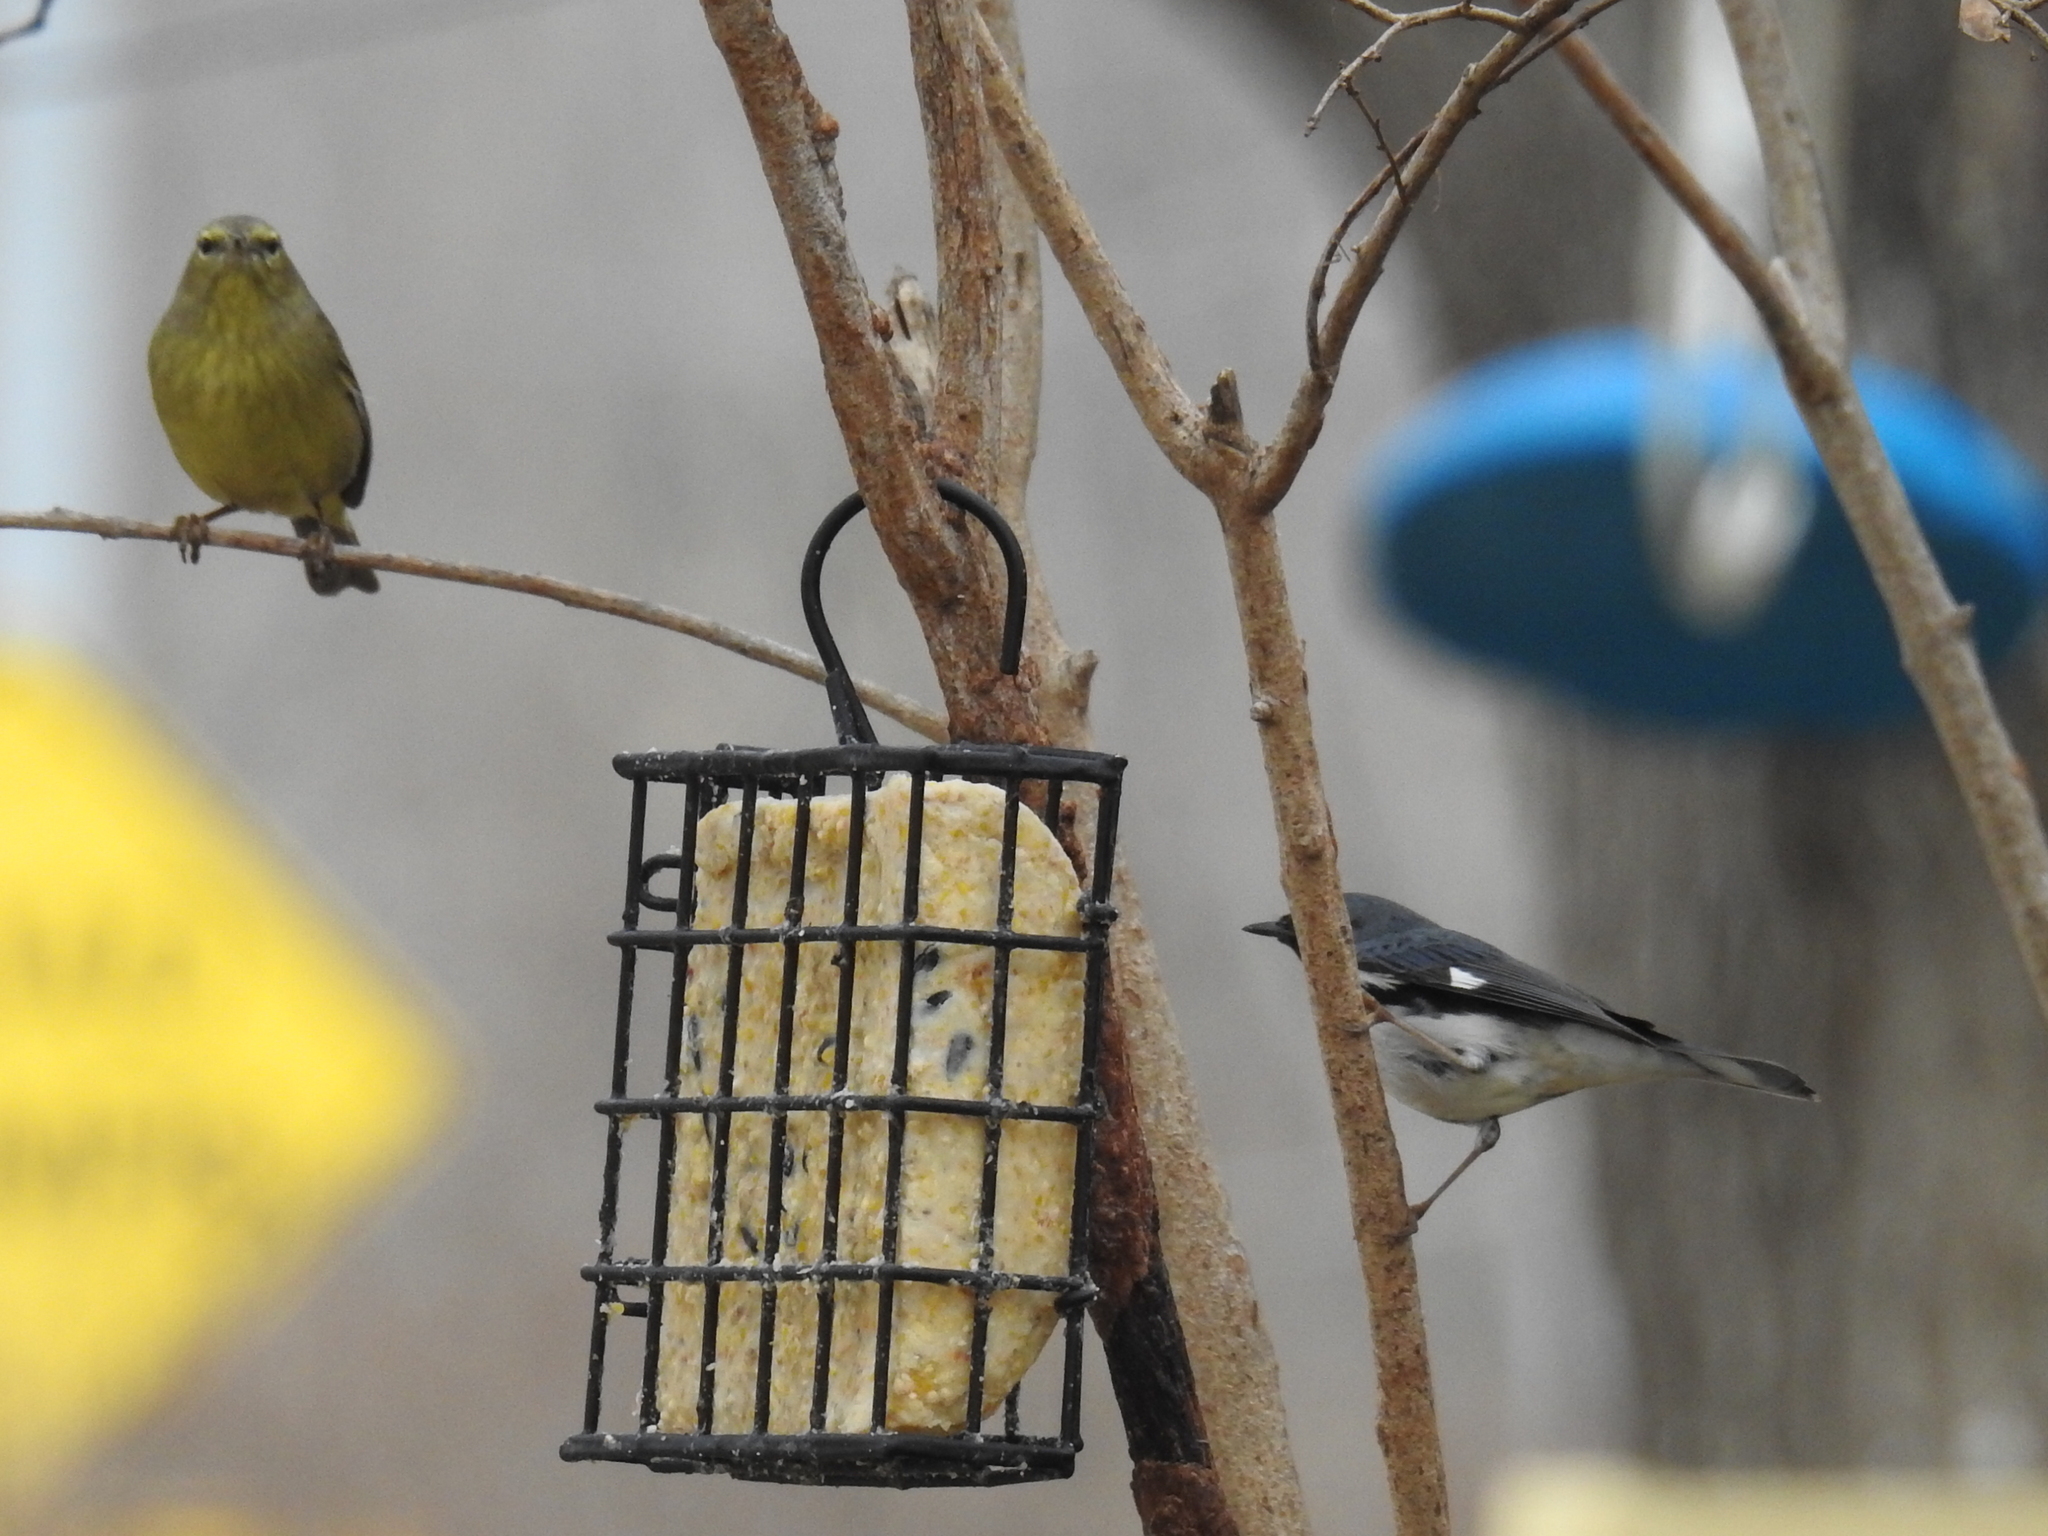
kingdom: Animalia
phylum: Chordata
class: Aves
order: Passeriformes
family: Parulidae
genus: Leiothlypis
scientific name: Leiothlypis celata
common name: Orange-crowned warbler
